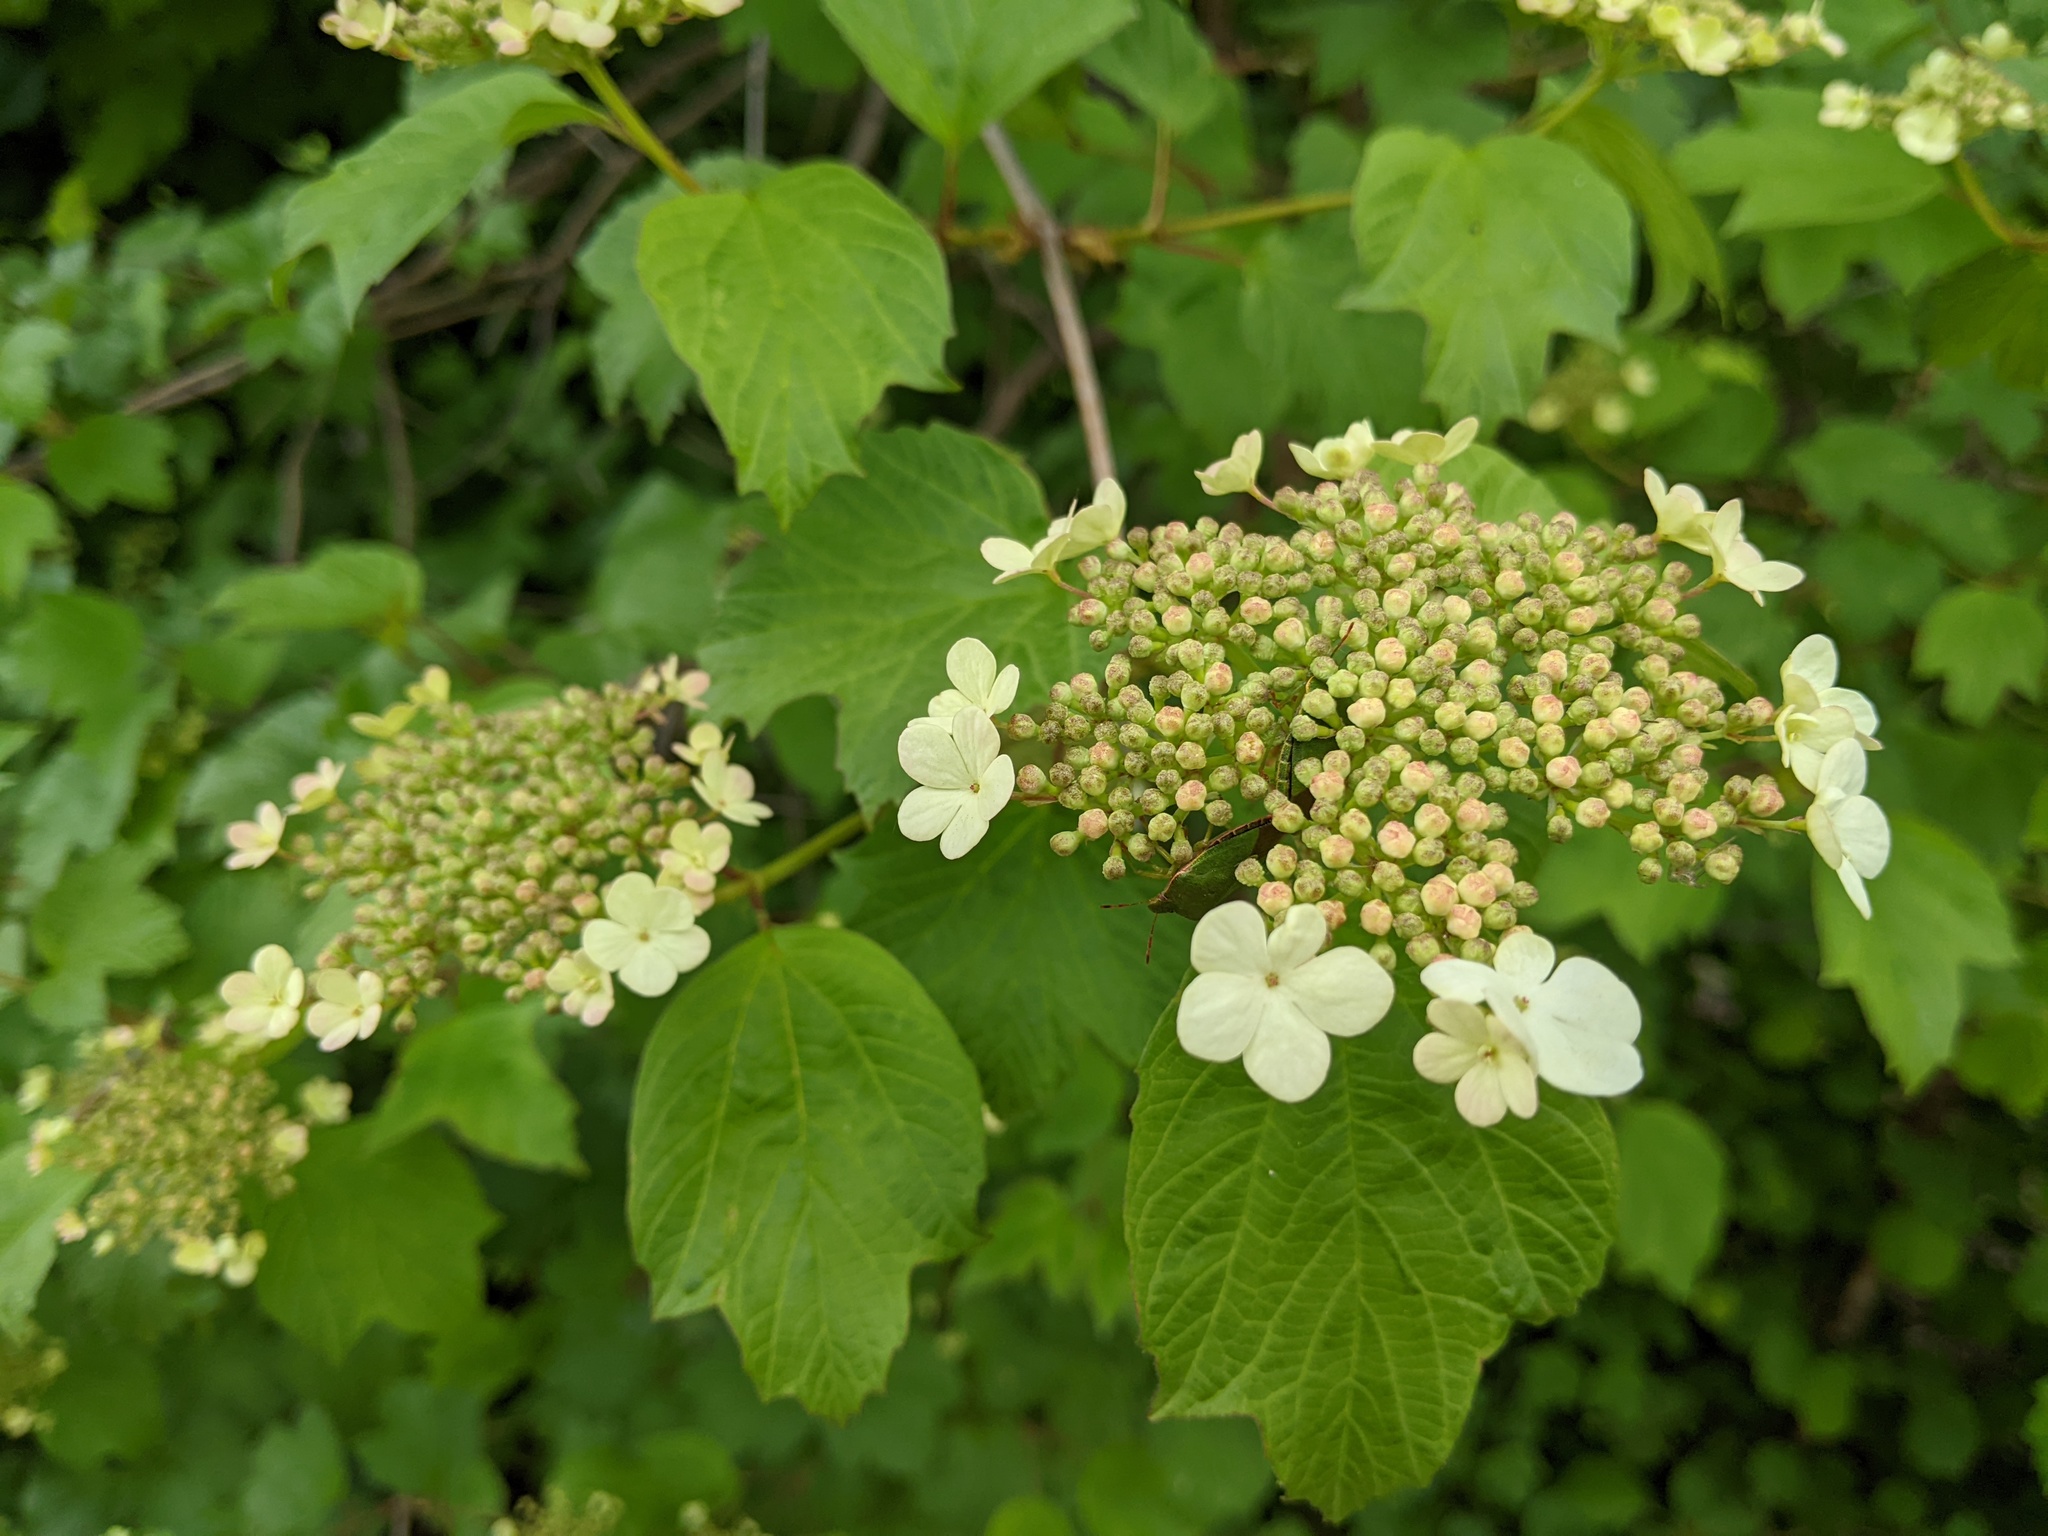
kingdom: Plantae
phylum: Tracheophyta
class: Magnoliopsida
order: Dipsacales
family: Viburnaceae
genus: Viburnum
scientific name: Viburnum opulus
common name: Guelder-rose
